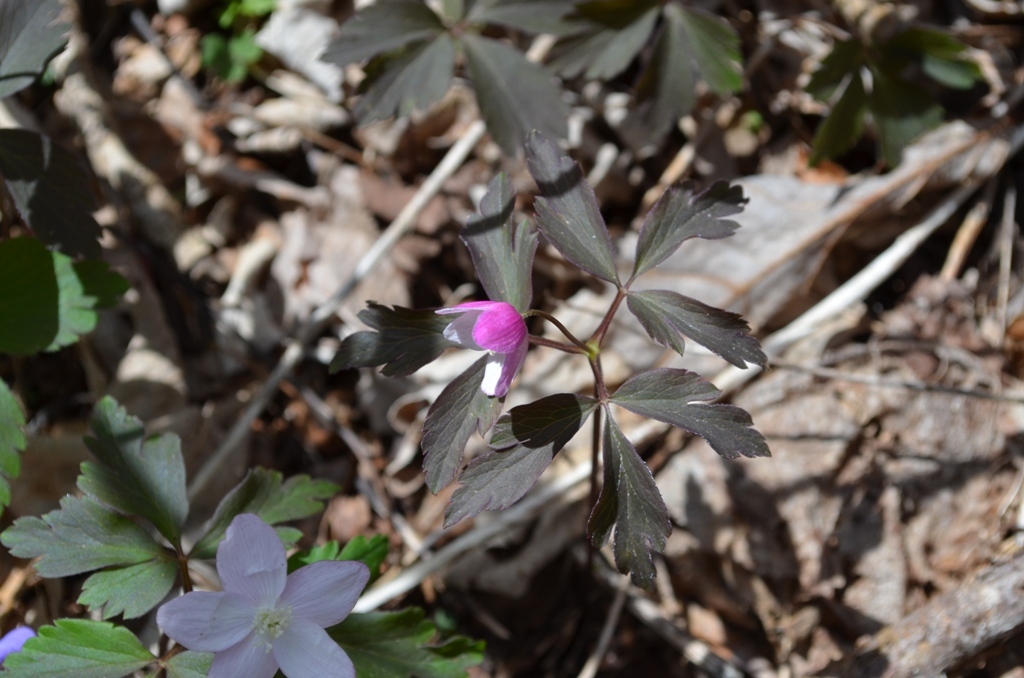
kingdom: Plantae
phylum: Tracheophyta
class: Magnoliopsida
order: Ranunculales
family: Ranunculaceae
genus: Anemone
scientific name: Anemone quinquefolia
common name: Wood anemone
